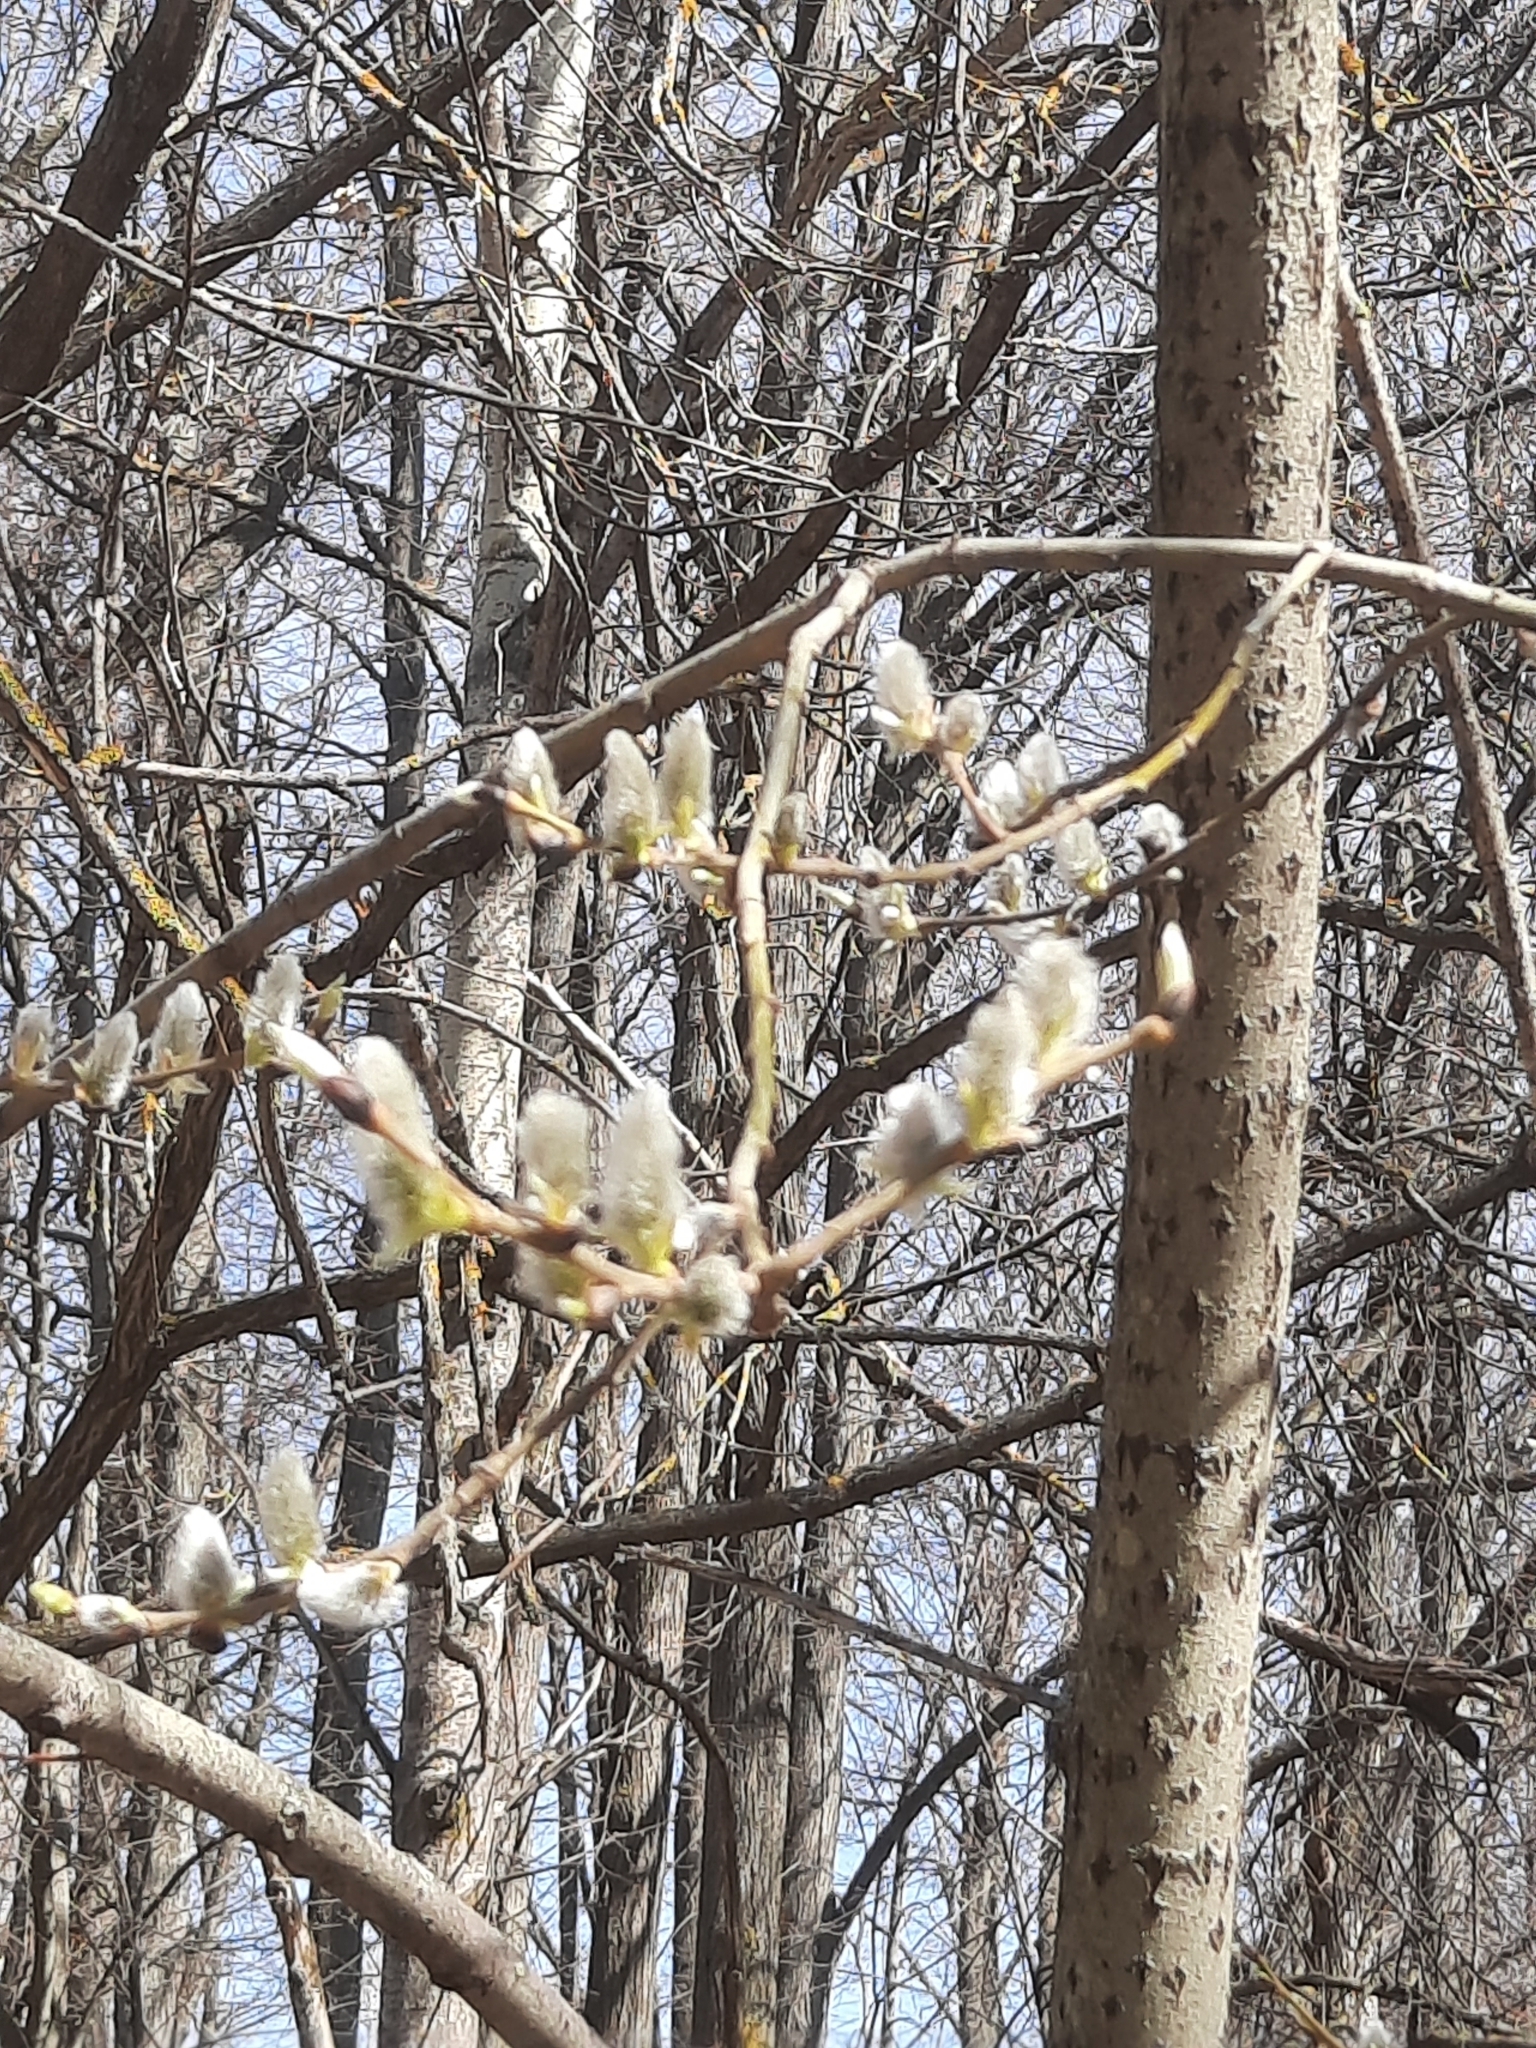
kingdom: Plantae
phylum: Tracheophyta
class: Magnoliopsida
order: Malpighiales
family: Salicaceae
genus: Salix
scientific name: Salix cinerea
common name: Common sallow
